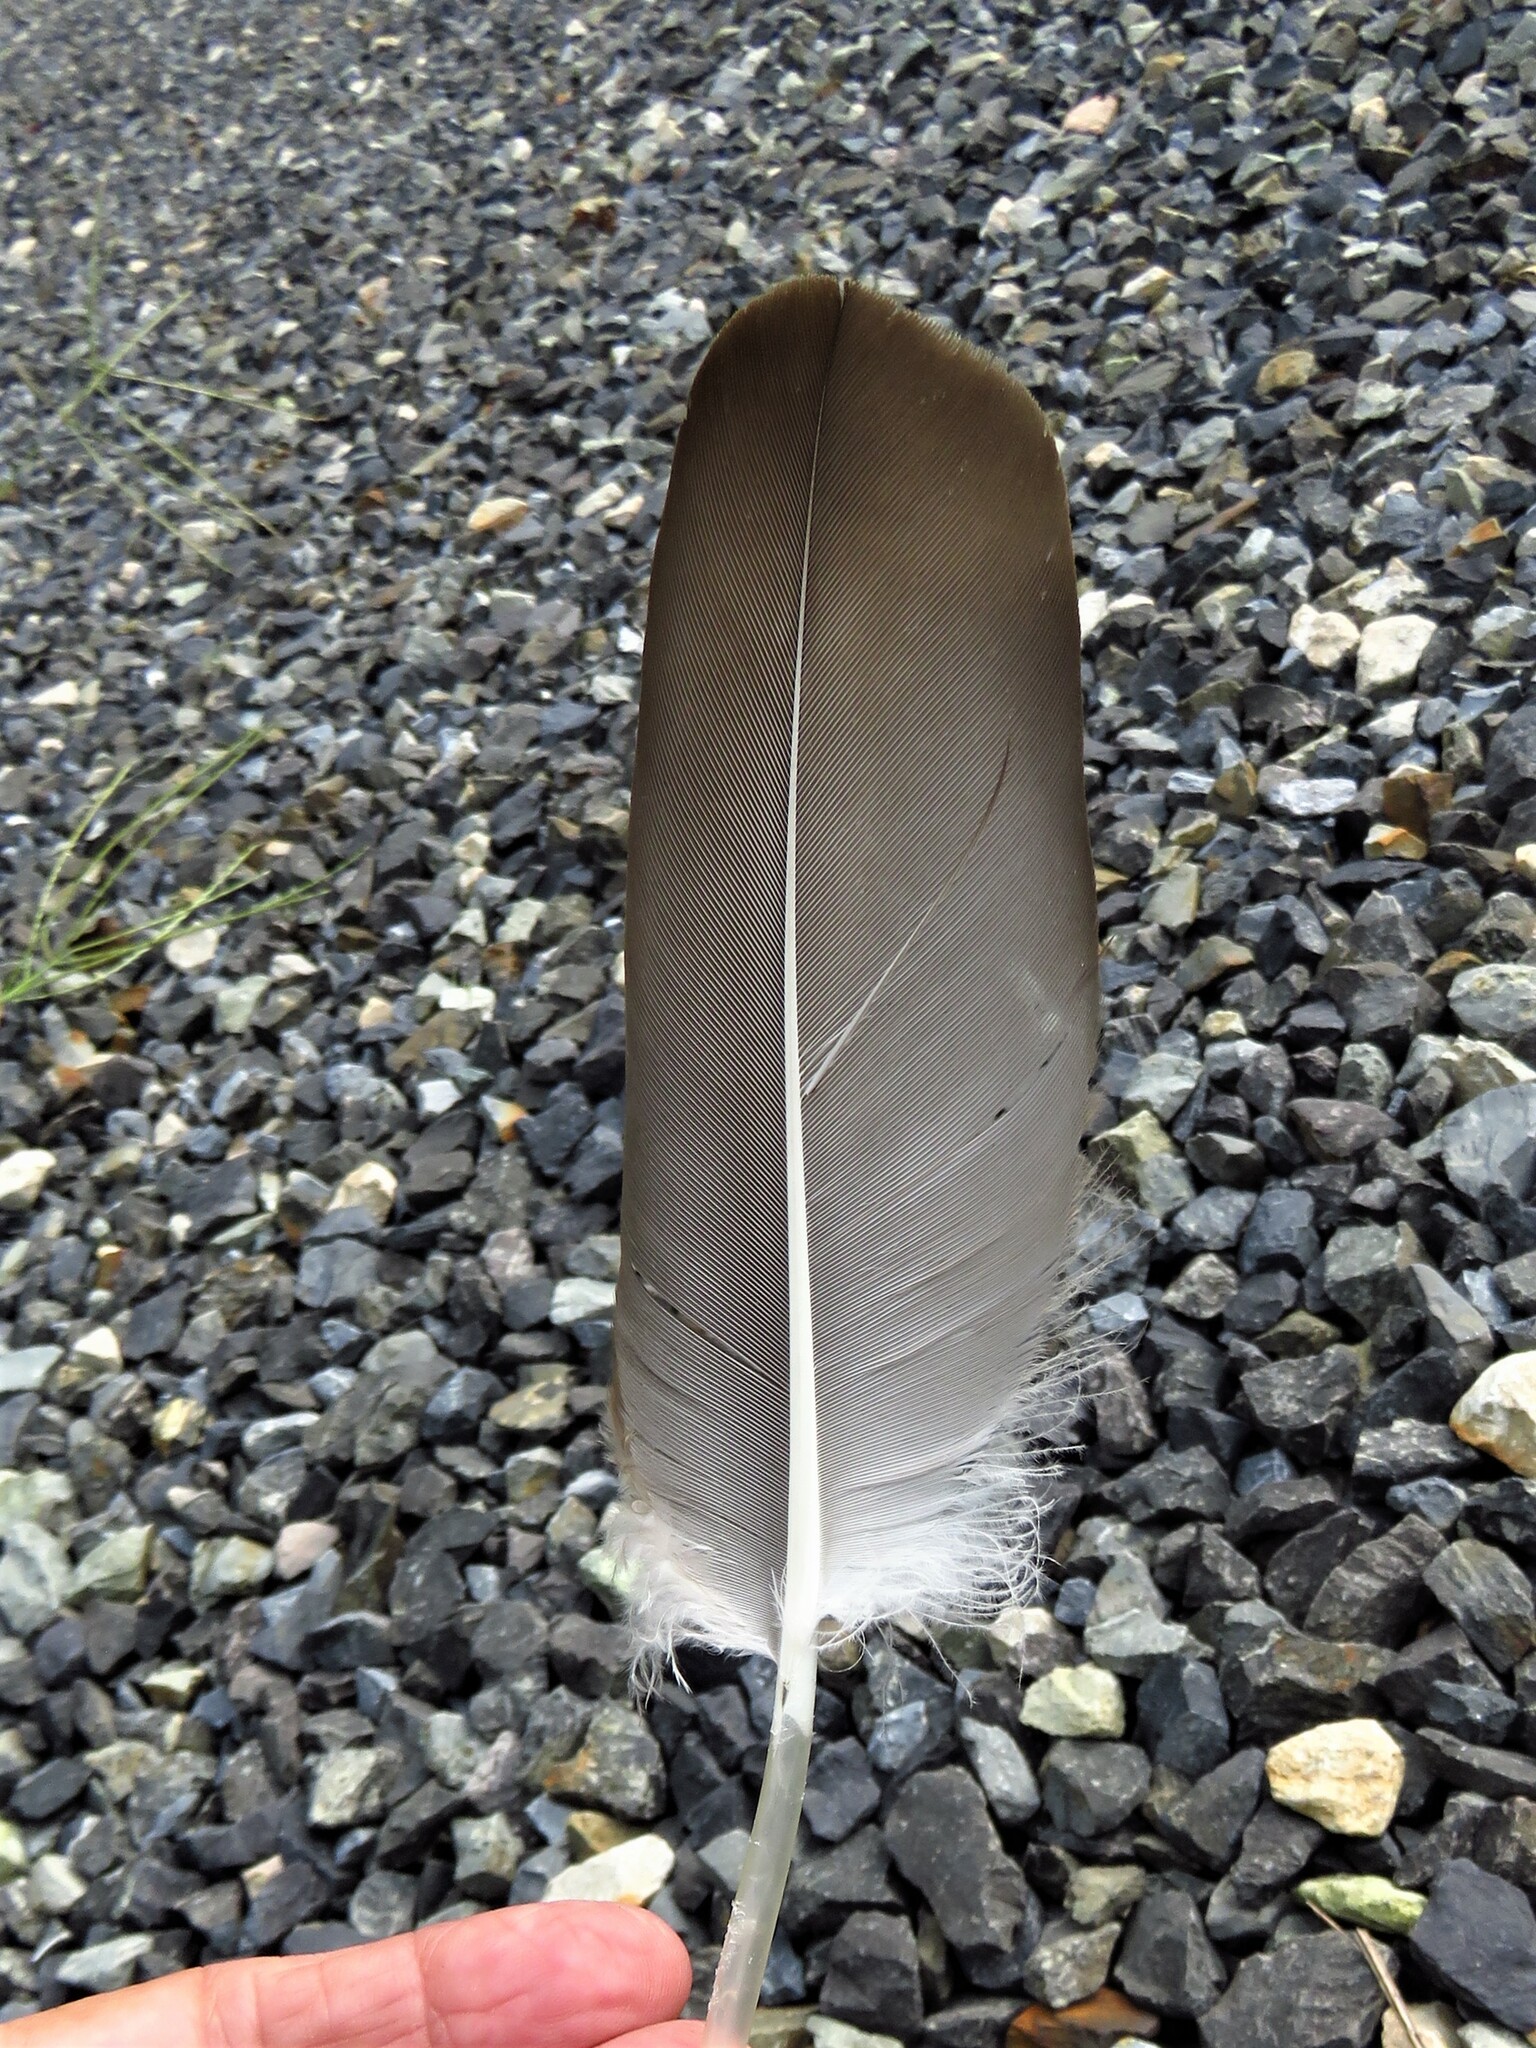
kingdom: Animalia
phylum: Chordata
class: Aves
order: Accipitriformes
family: Cathartidae
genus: Cathartes
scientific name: Cathartes aura
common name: Turkey vulture
